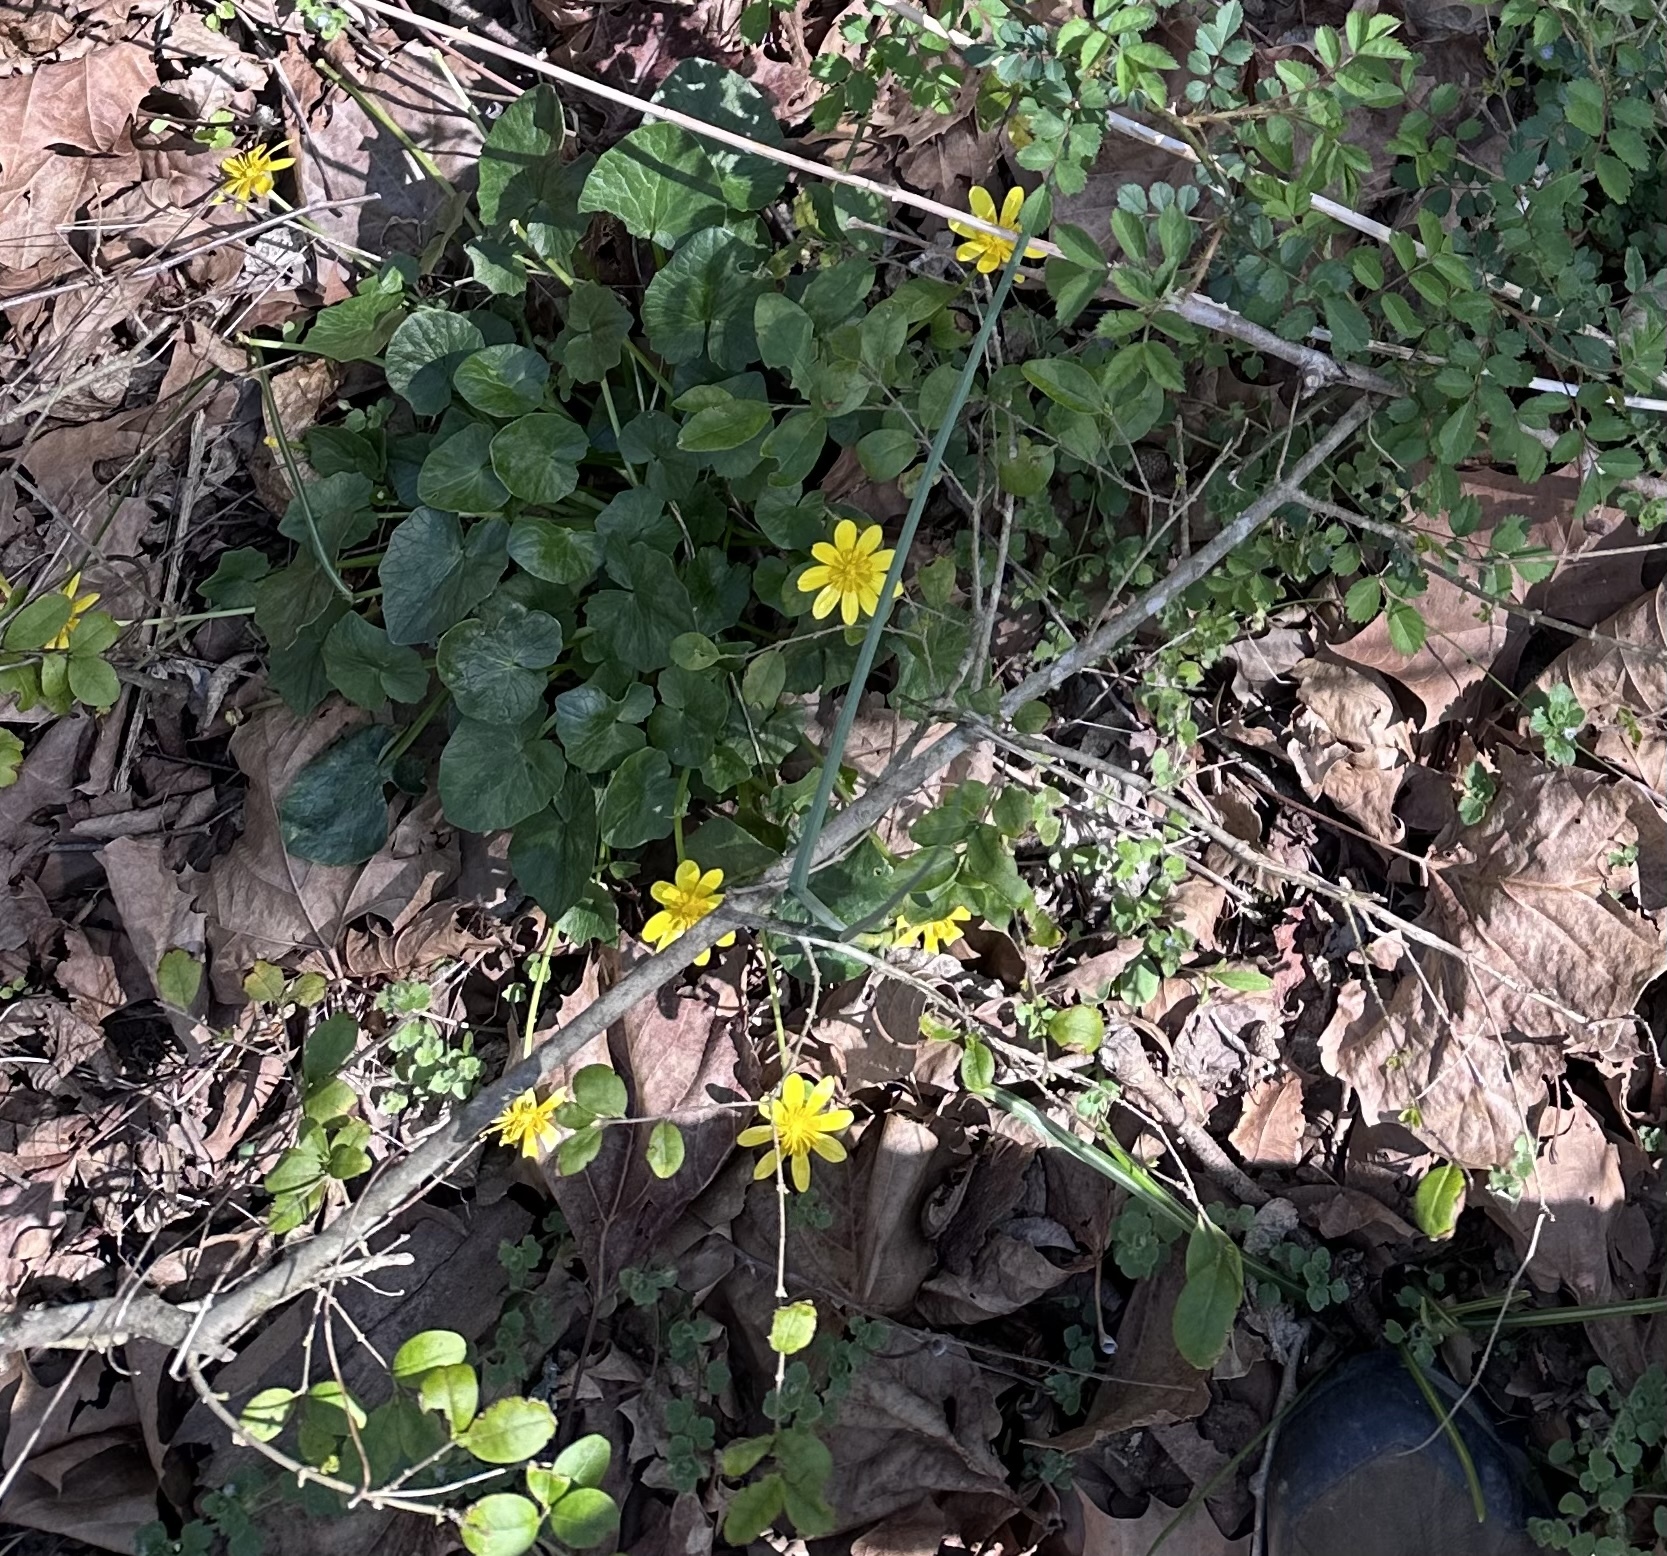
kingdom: Plantae
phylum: Tracheophyta
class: Magnoliopsida
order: Ranunculales
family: Ranunculaceae
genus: Ficaria
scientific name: Ficaria verna
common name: Lesser celandine
